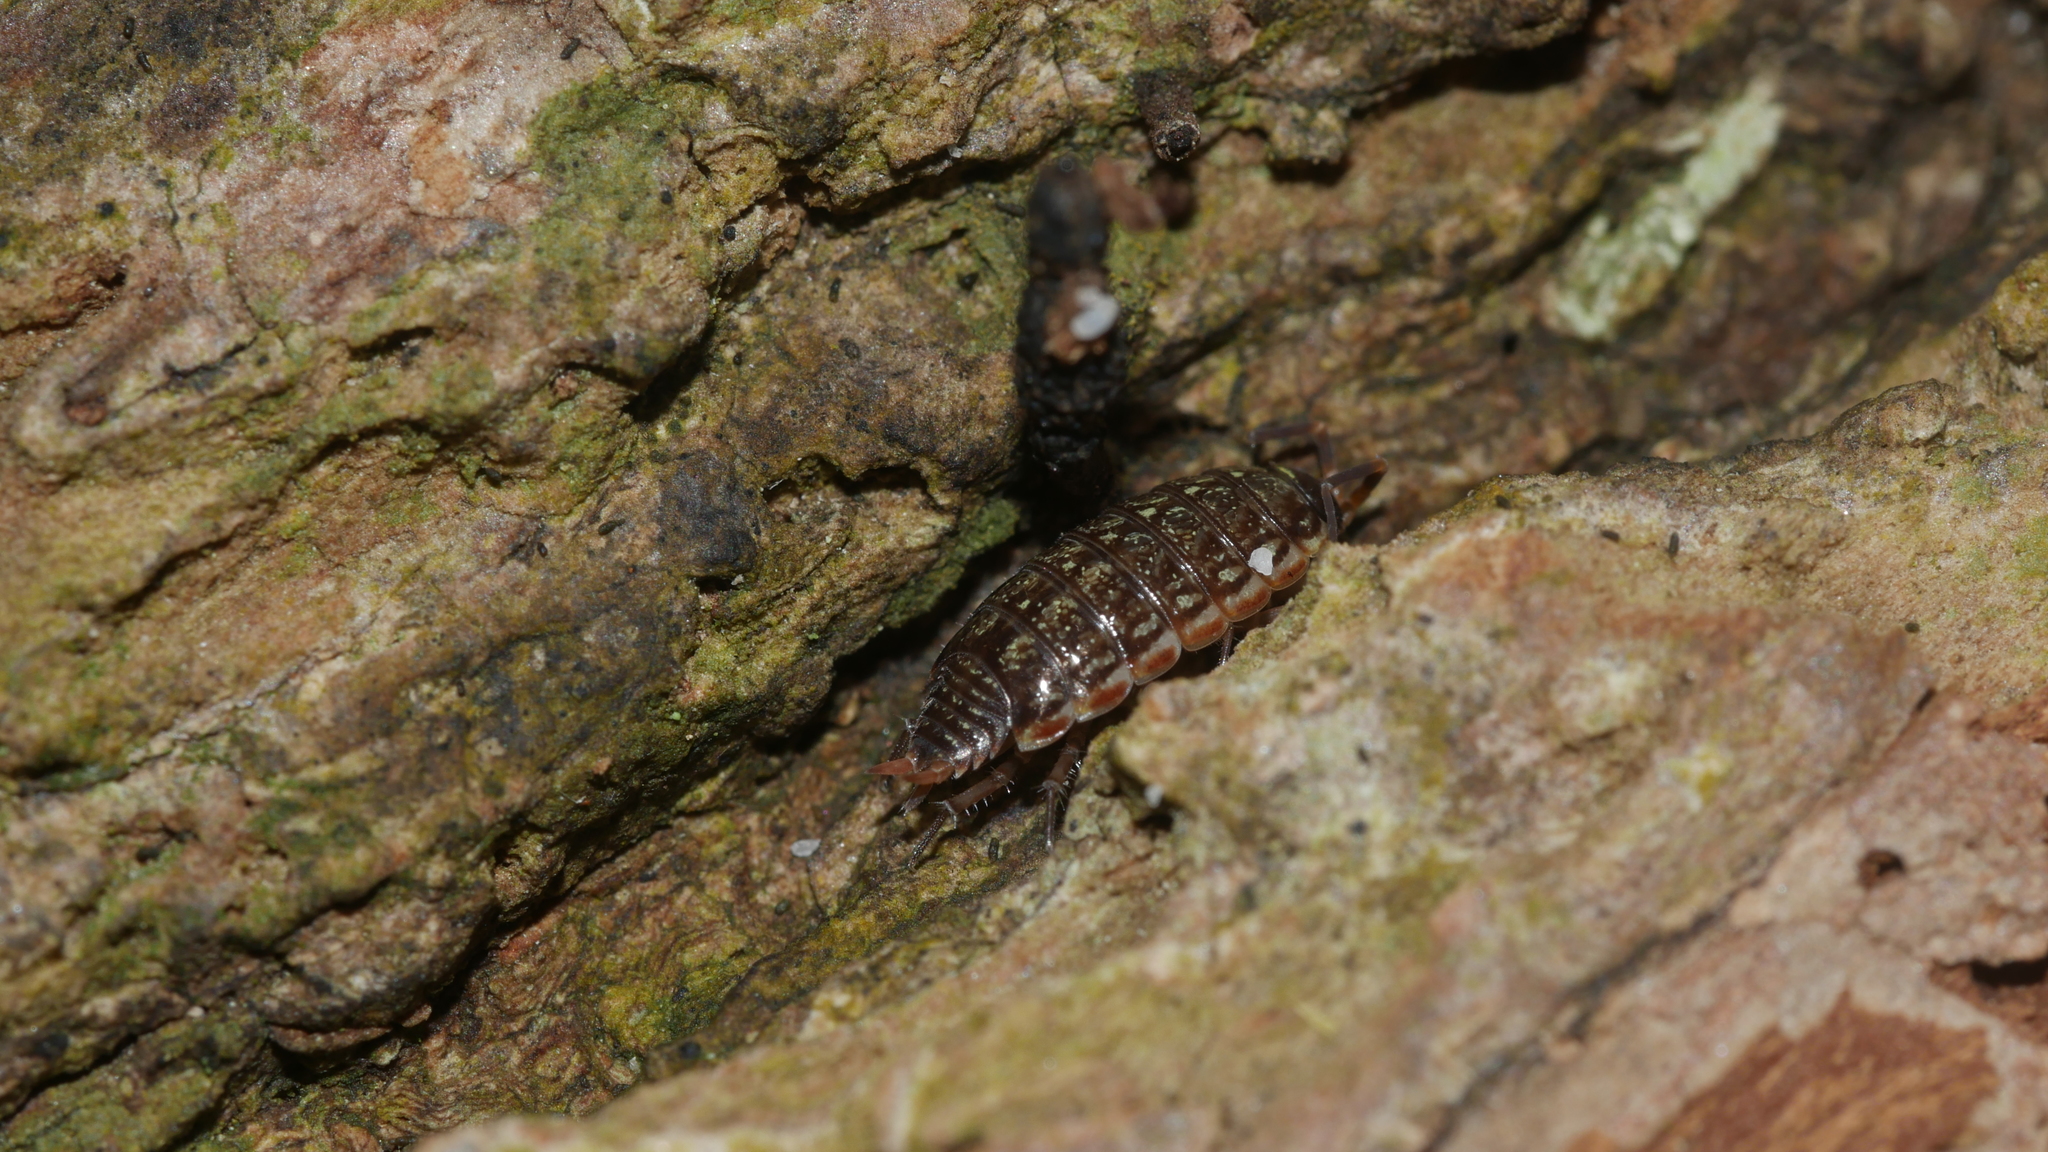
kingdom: Animalia
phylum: Arthropoda
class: Malacostraca
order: Isopoda
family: Philosciidae
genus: Philoscia
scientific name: Philoscia muscorum
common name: Common striped woodlouse
